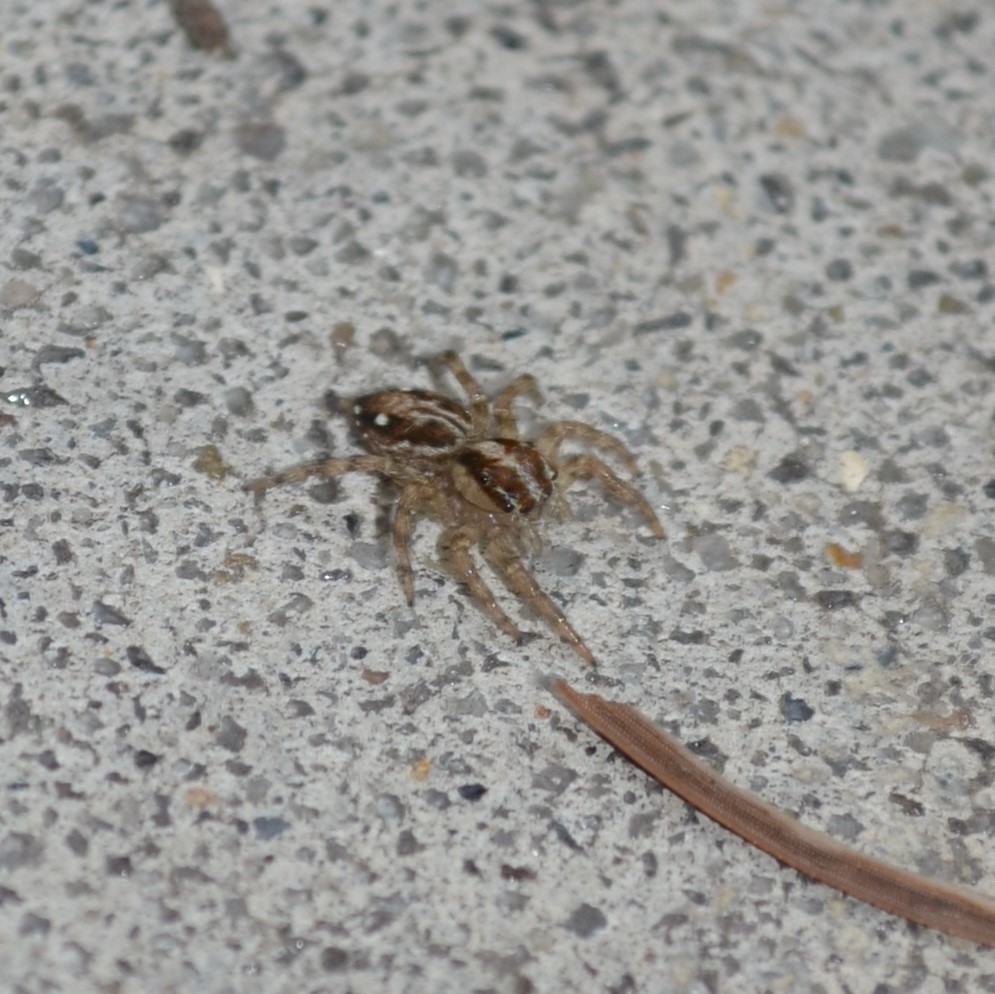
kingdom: Animalia
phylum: Arthropoda
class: Arachnida
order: Araneae
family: Salticidae
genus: Plexippus
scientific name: Plexippus paykulli
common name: Pantropical jumper
